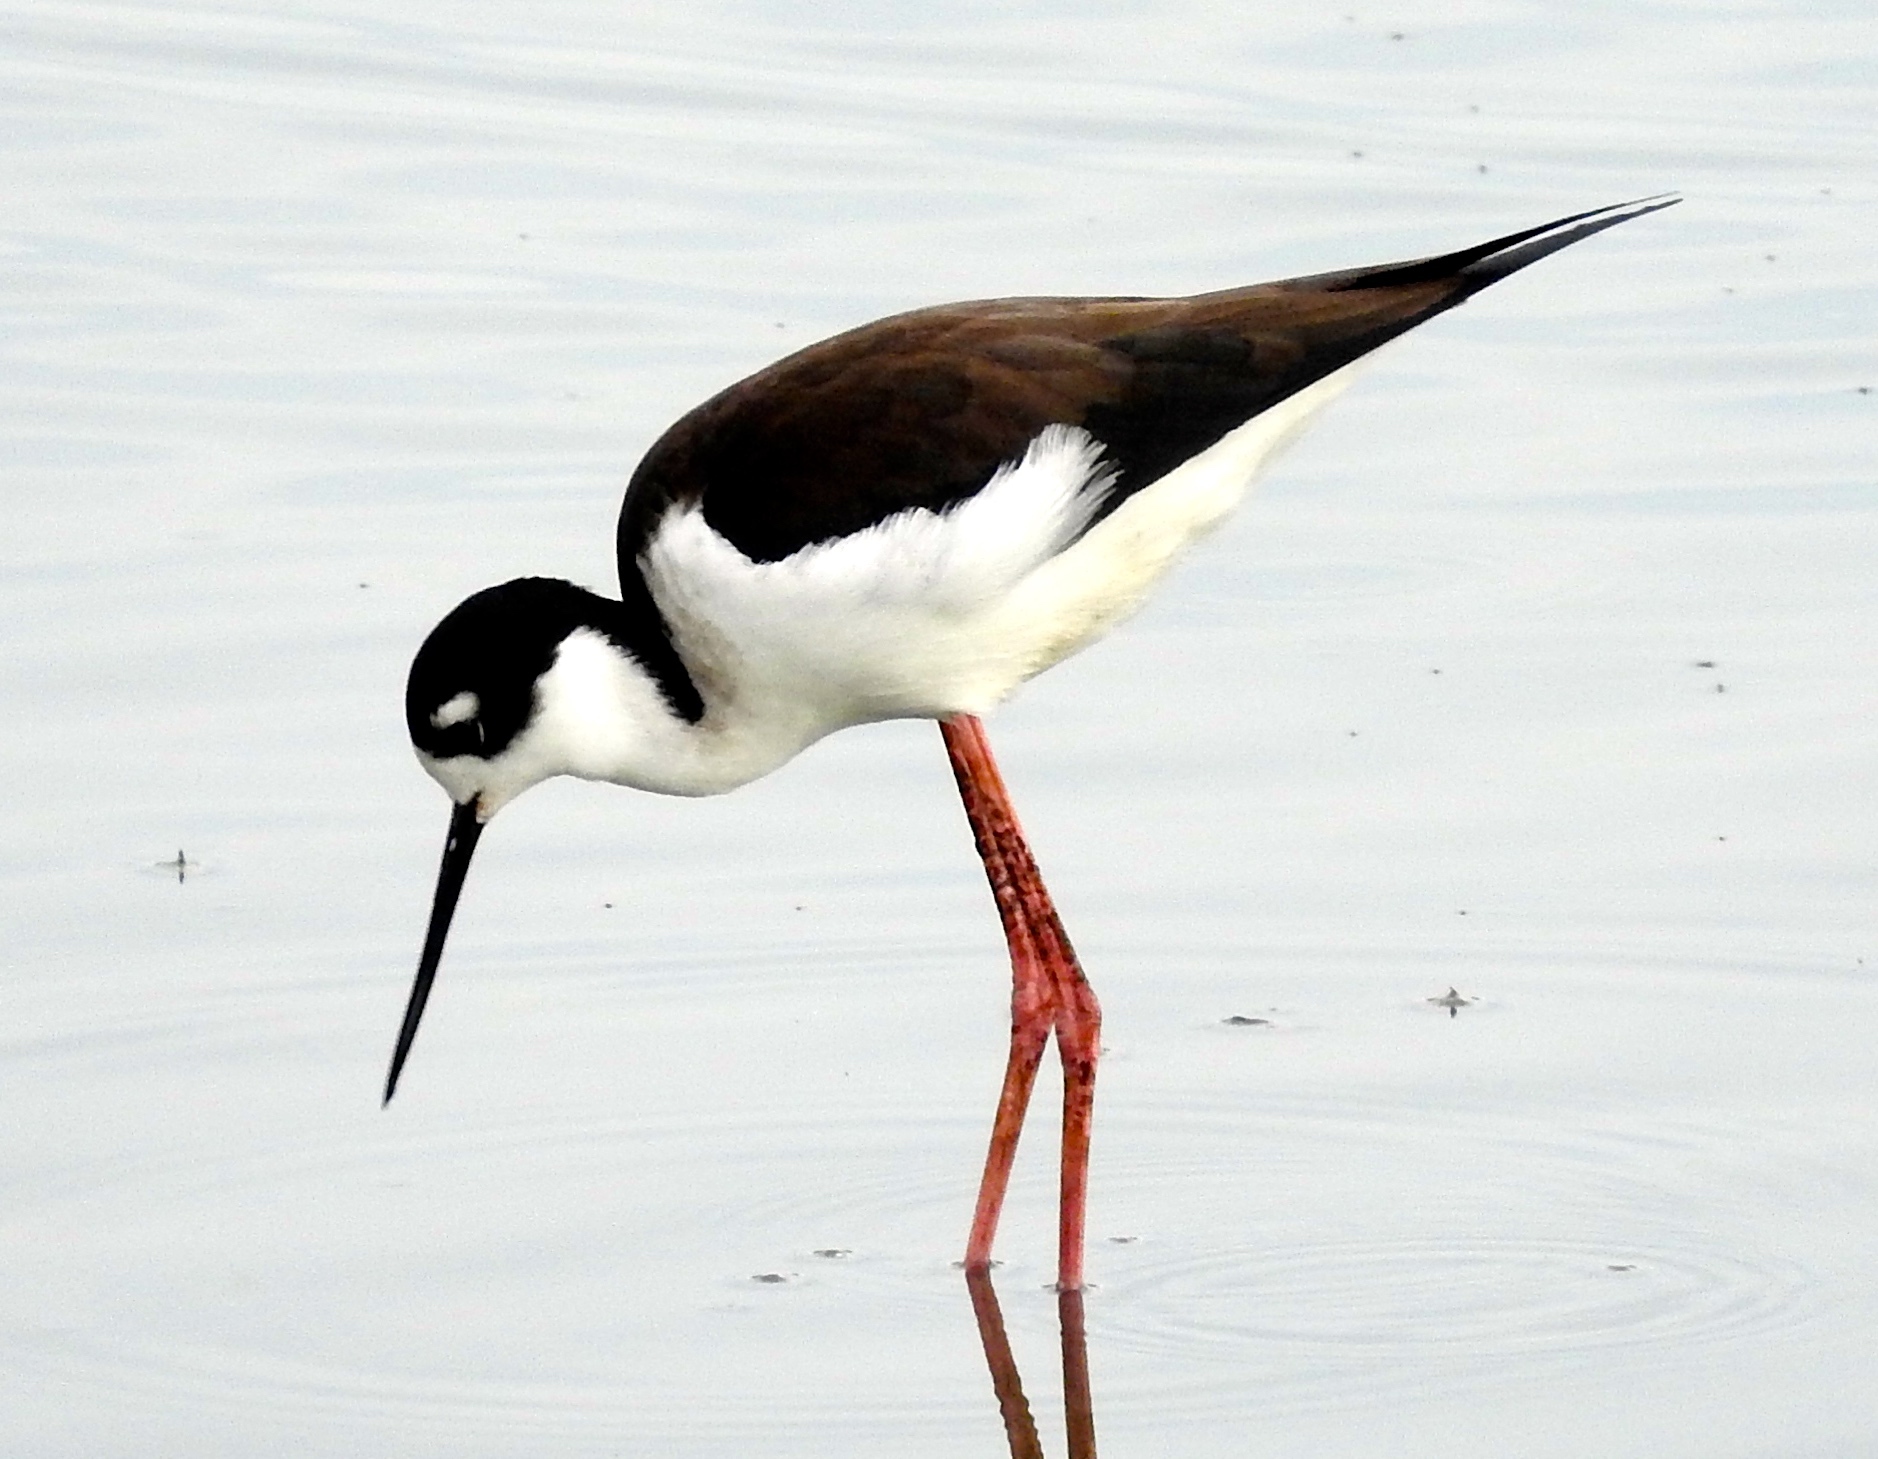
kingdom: Animalia
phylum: Chordata
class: Aves
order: Charadriiformes
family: Recurvirostridae
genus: Himantopus
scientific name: Himantopus mexicanus
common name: Black-necked stilt
